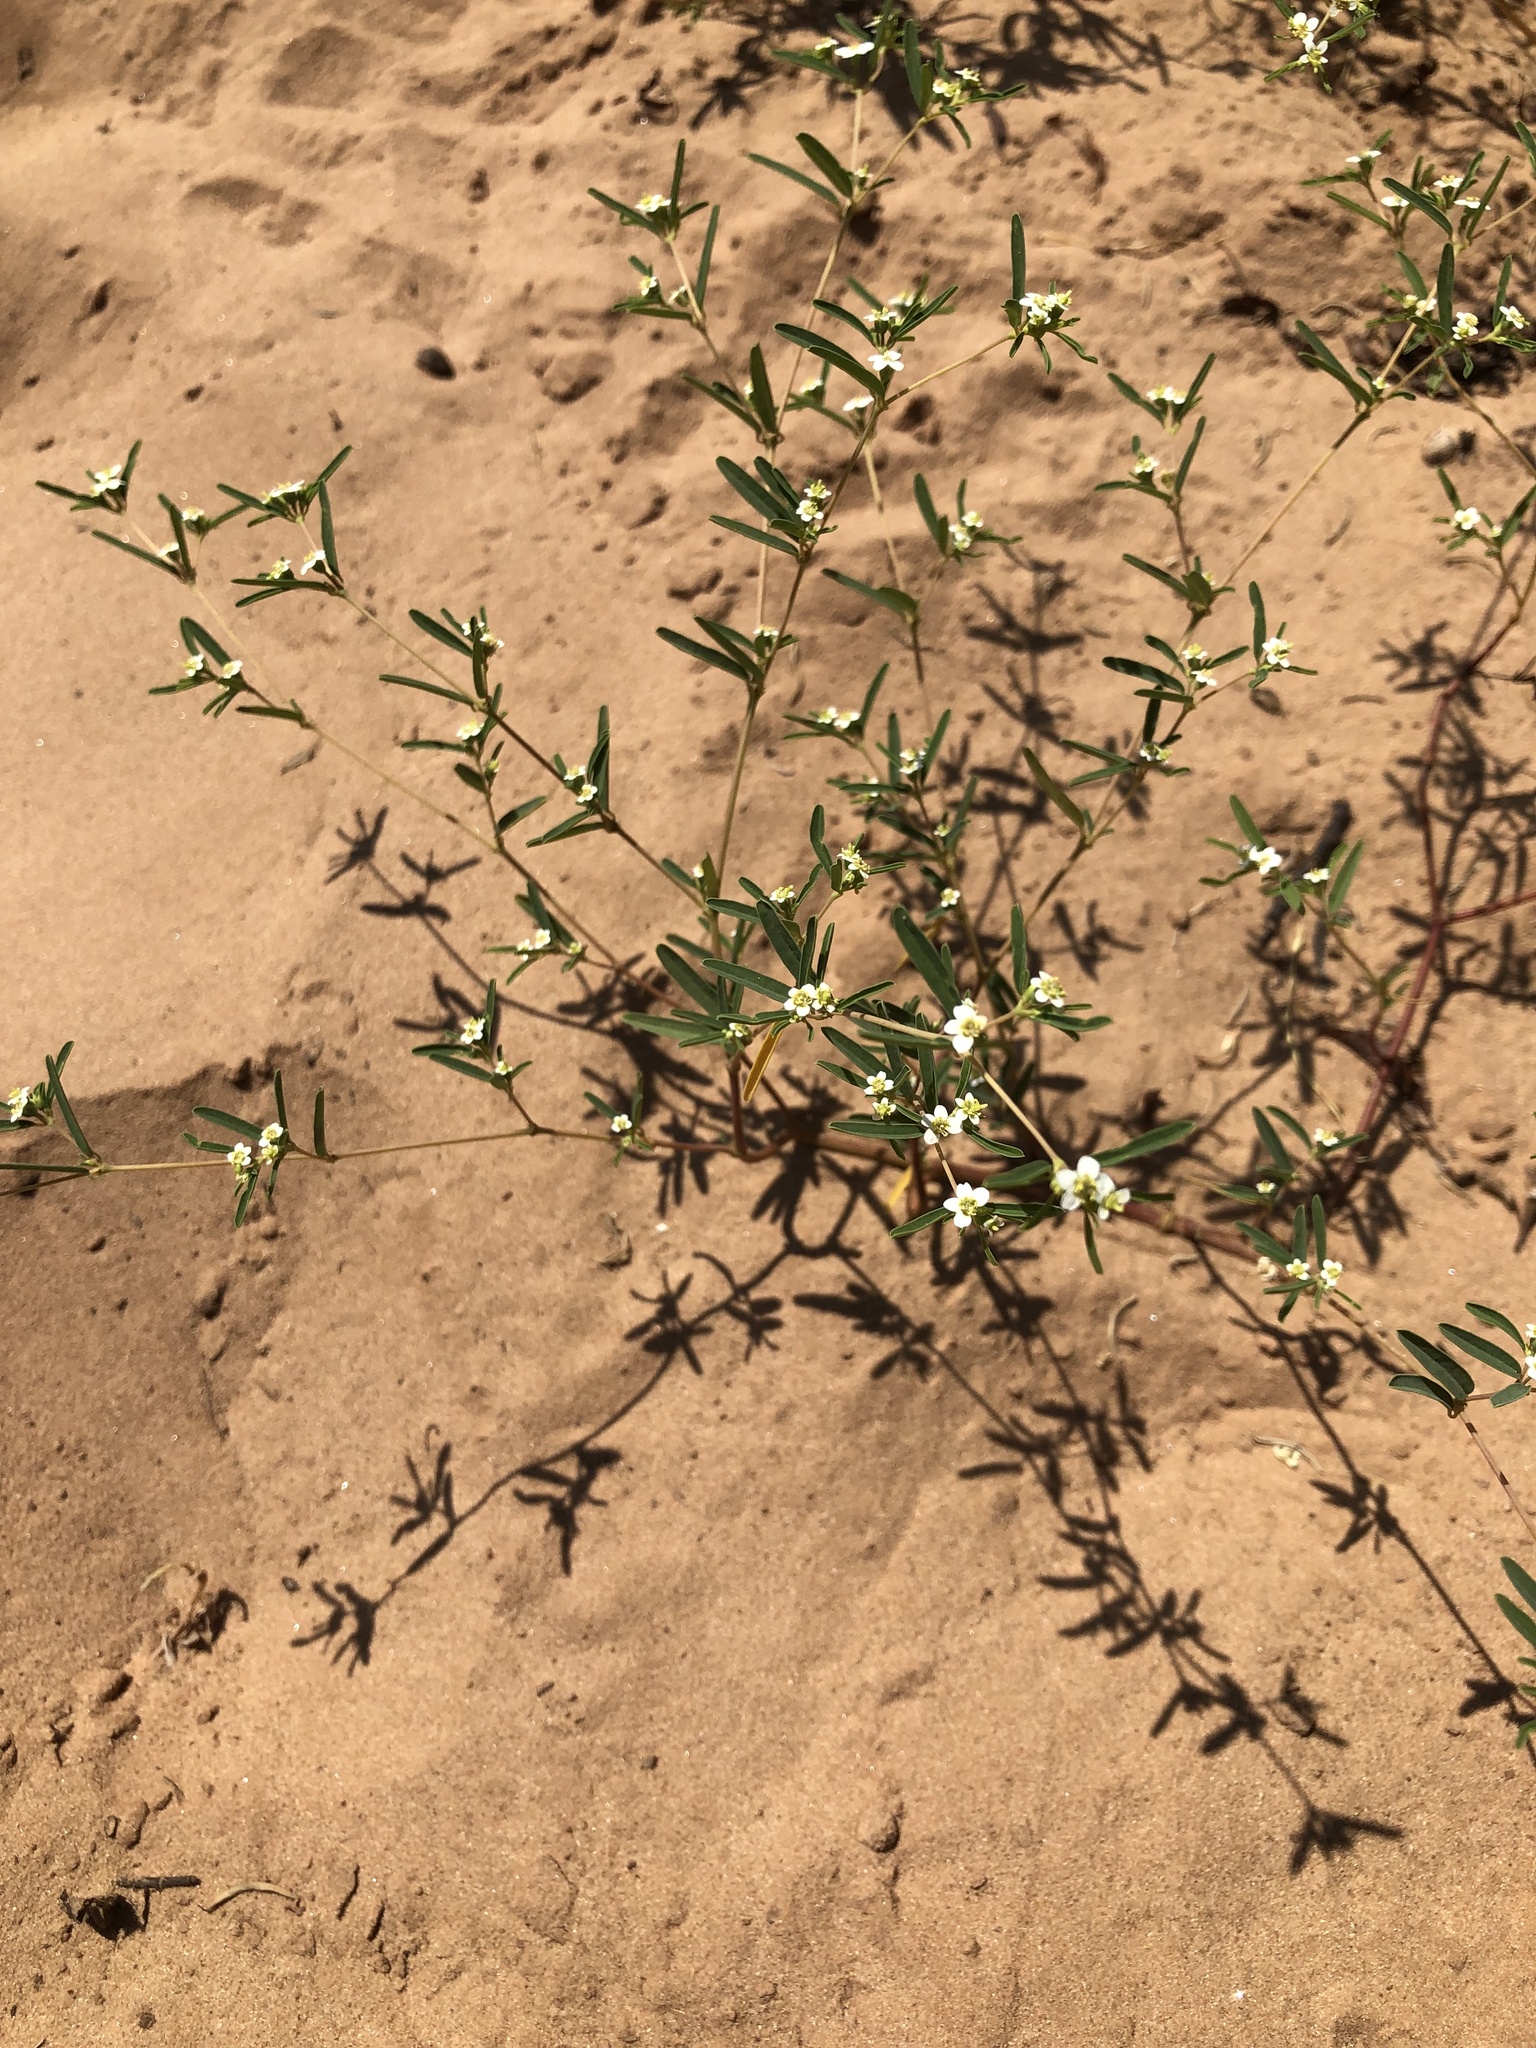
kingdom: Plantae
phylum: Tracheophyta
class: Magnoliopsida
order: Malpighiales
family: Euphorbiaceae
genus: Euphorbia
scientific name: Euphorbia missurica
